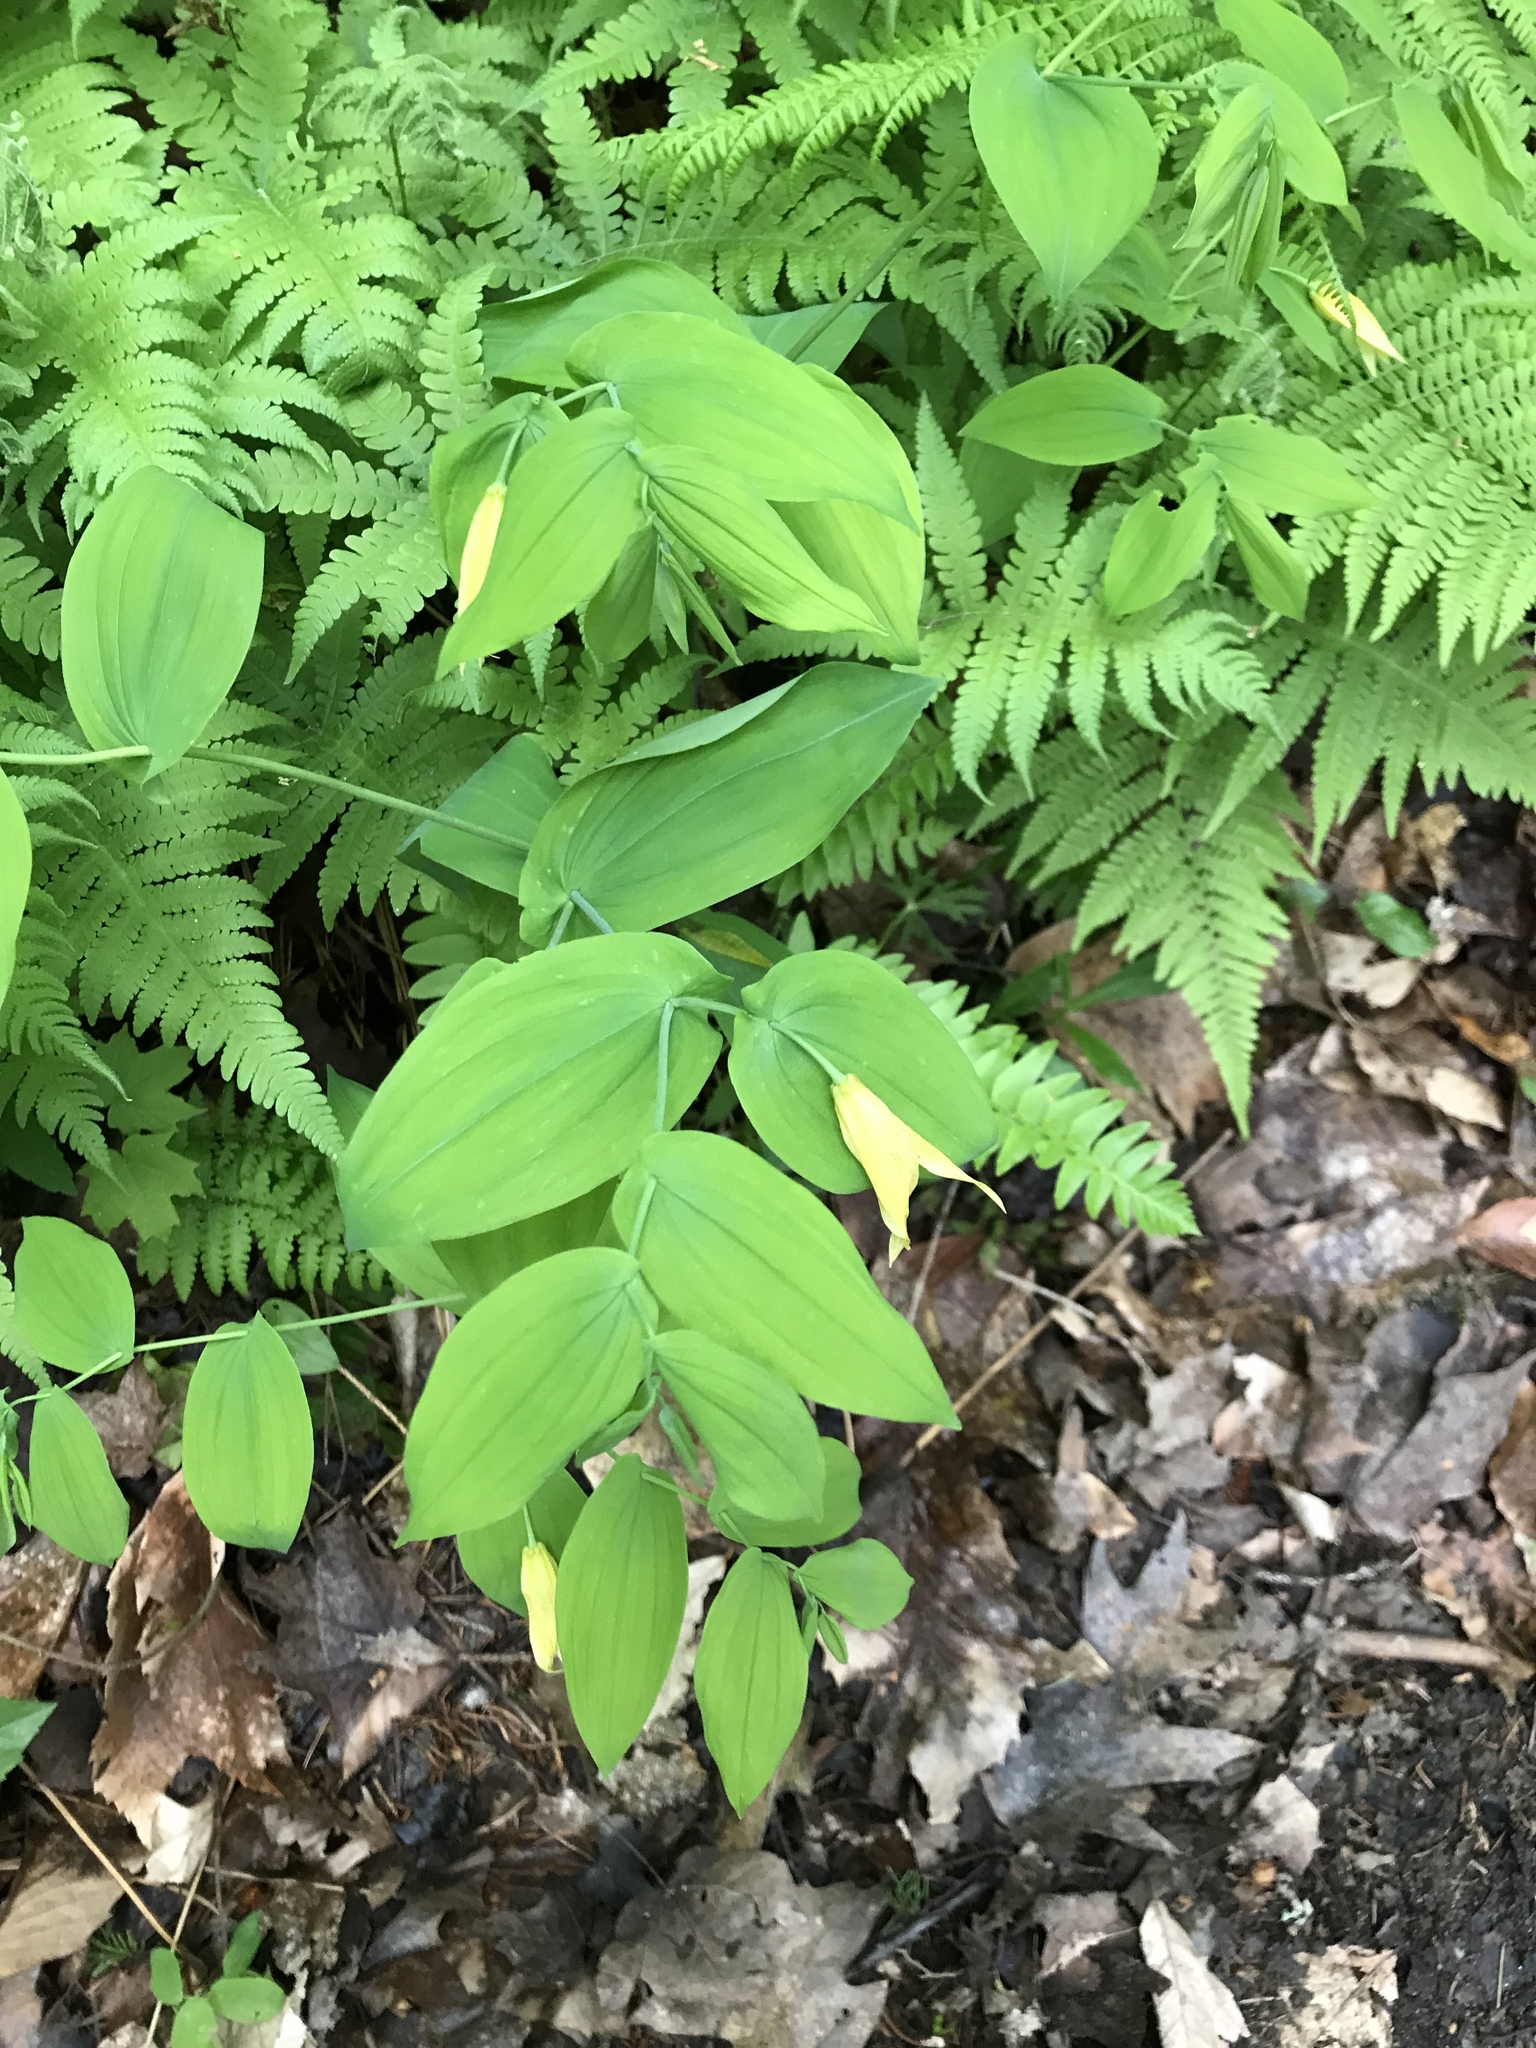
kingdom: Plantae
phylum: Tracheophyta
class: Liliopsida
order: Liliales
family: Colchicaceae
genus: Uvularia
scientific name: Uvularia grandiflora
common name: Bellwort
